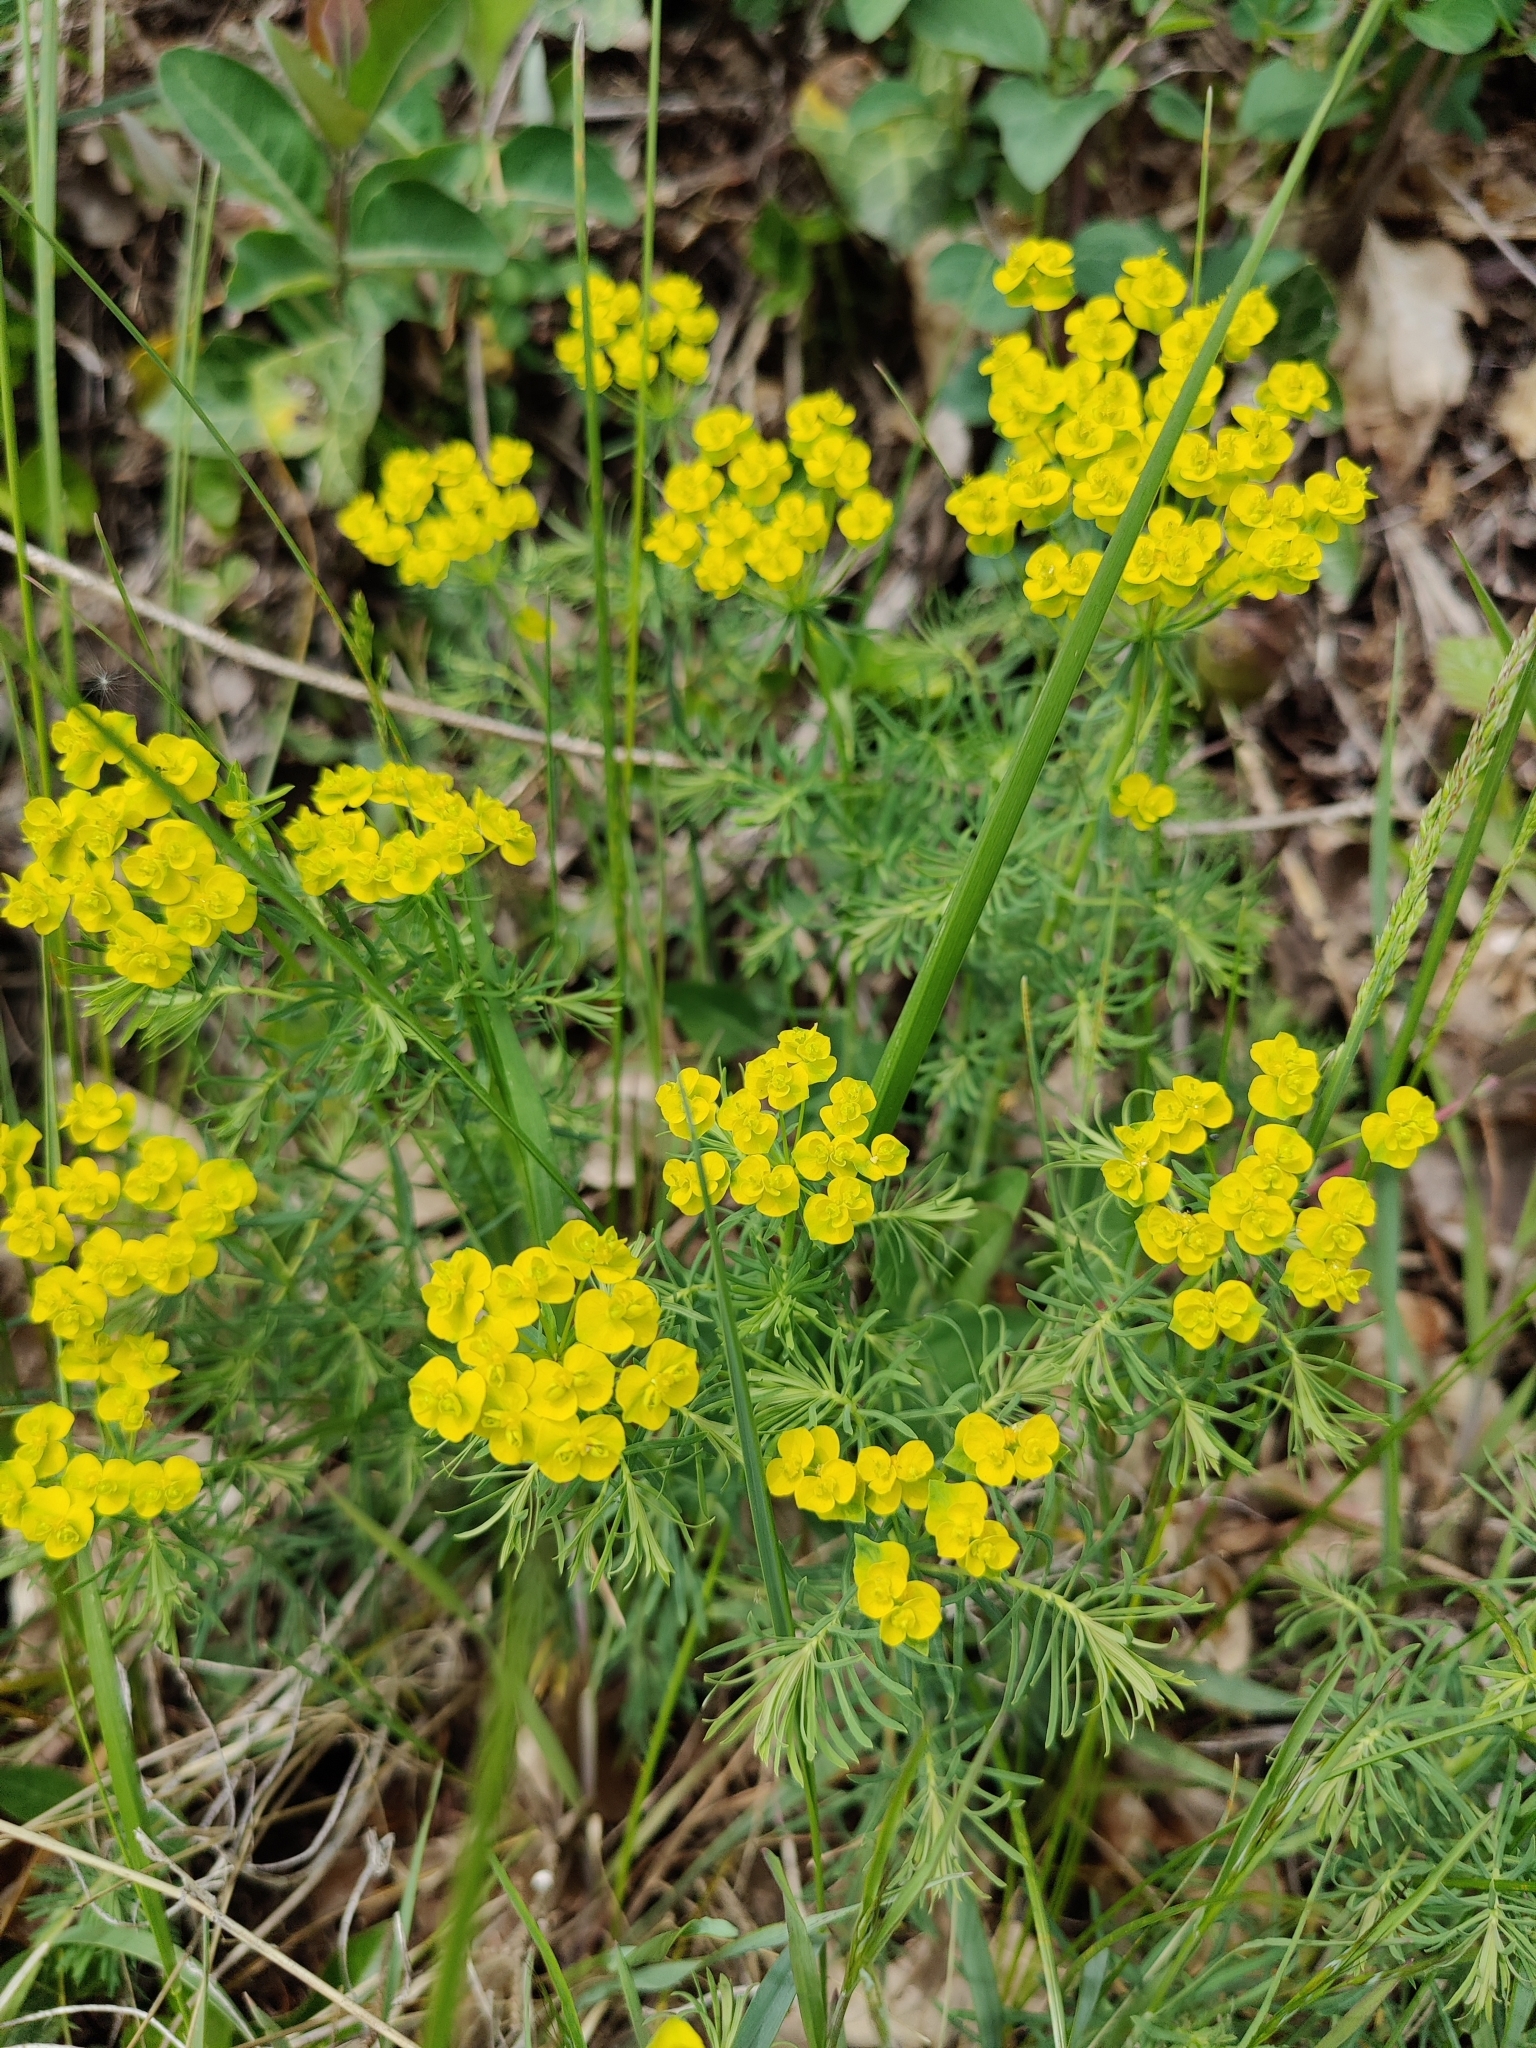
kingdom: Plantae
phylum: Tracheophyta
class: Magnoliopsida
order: Malpighiales
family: Euphorbiaceae
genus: Euphorbia
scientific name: Euphorbia cyparissias
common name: Cypress spurge
